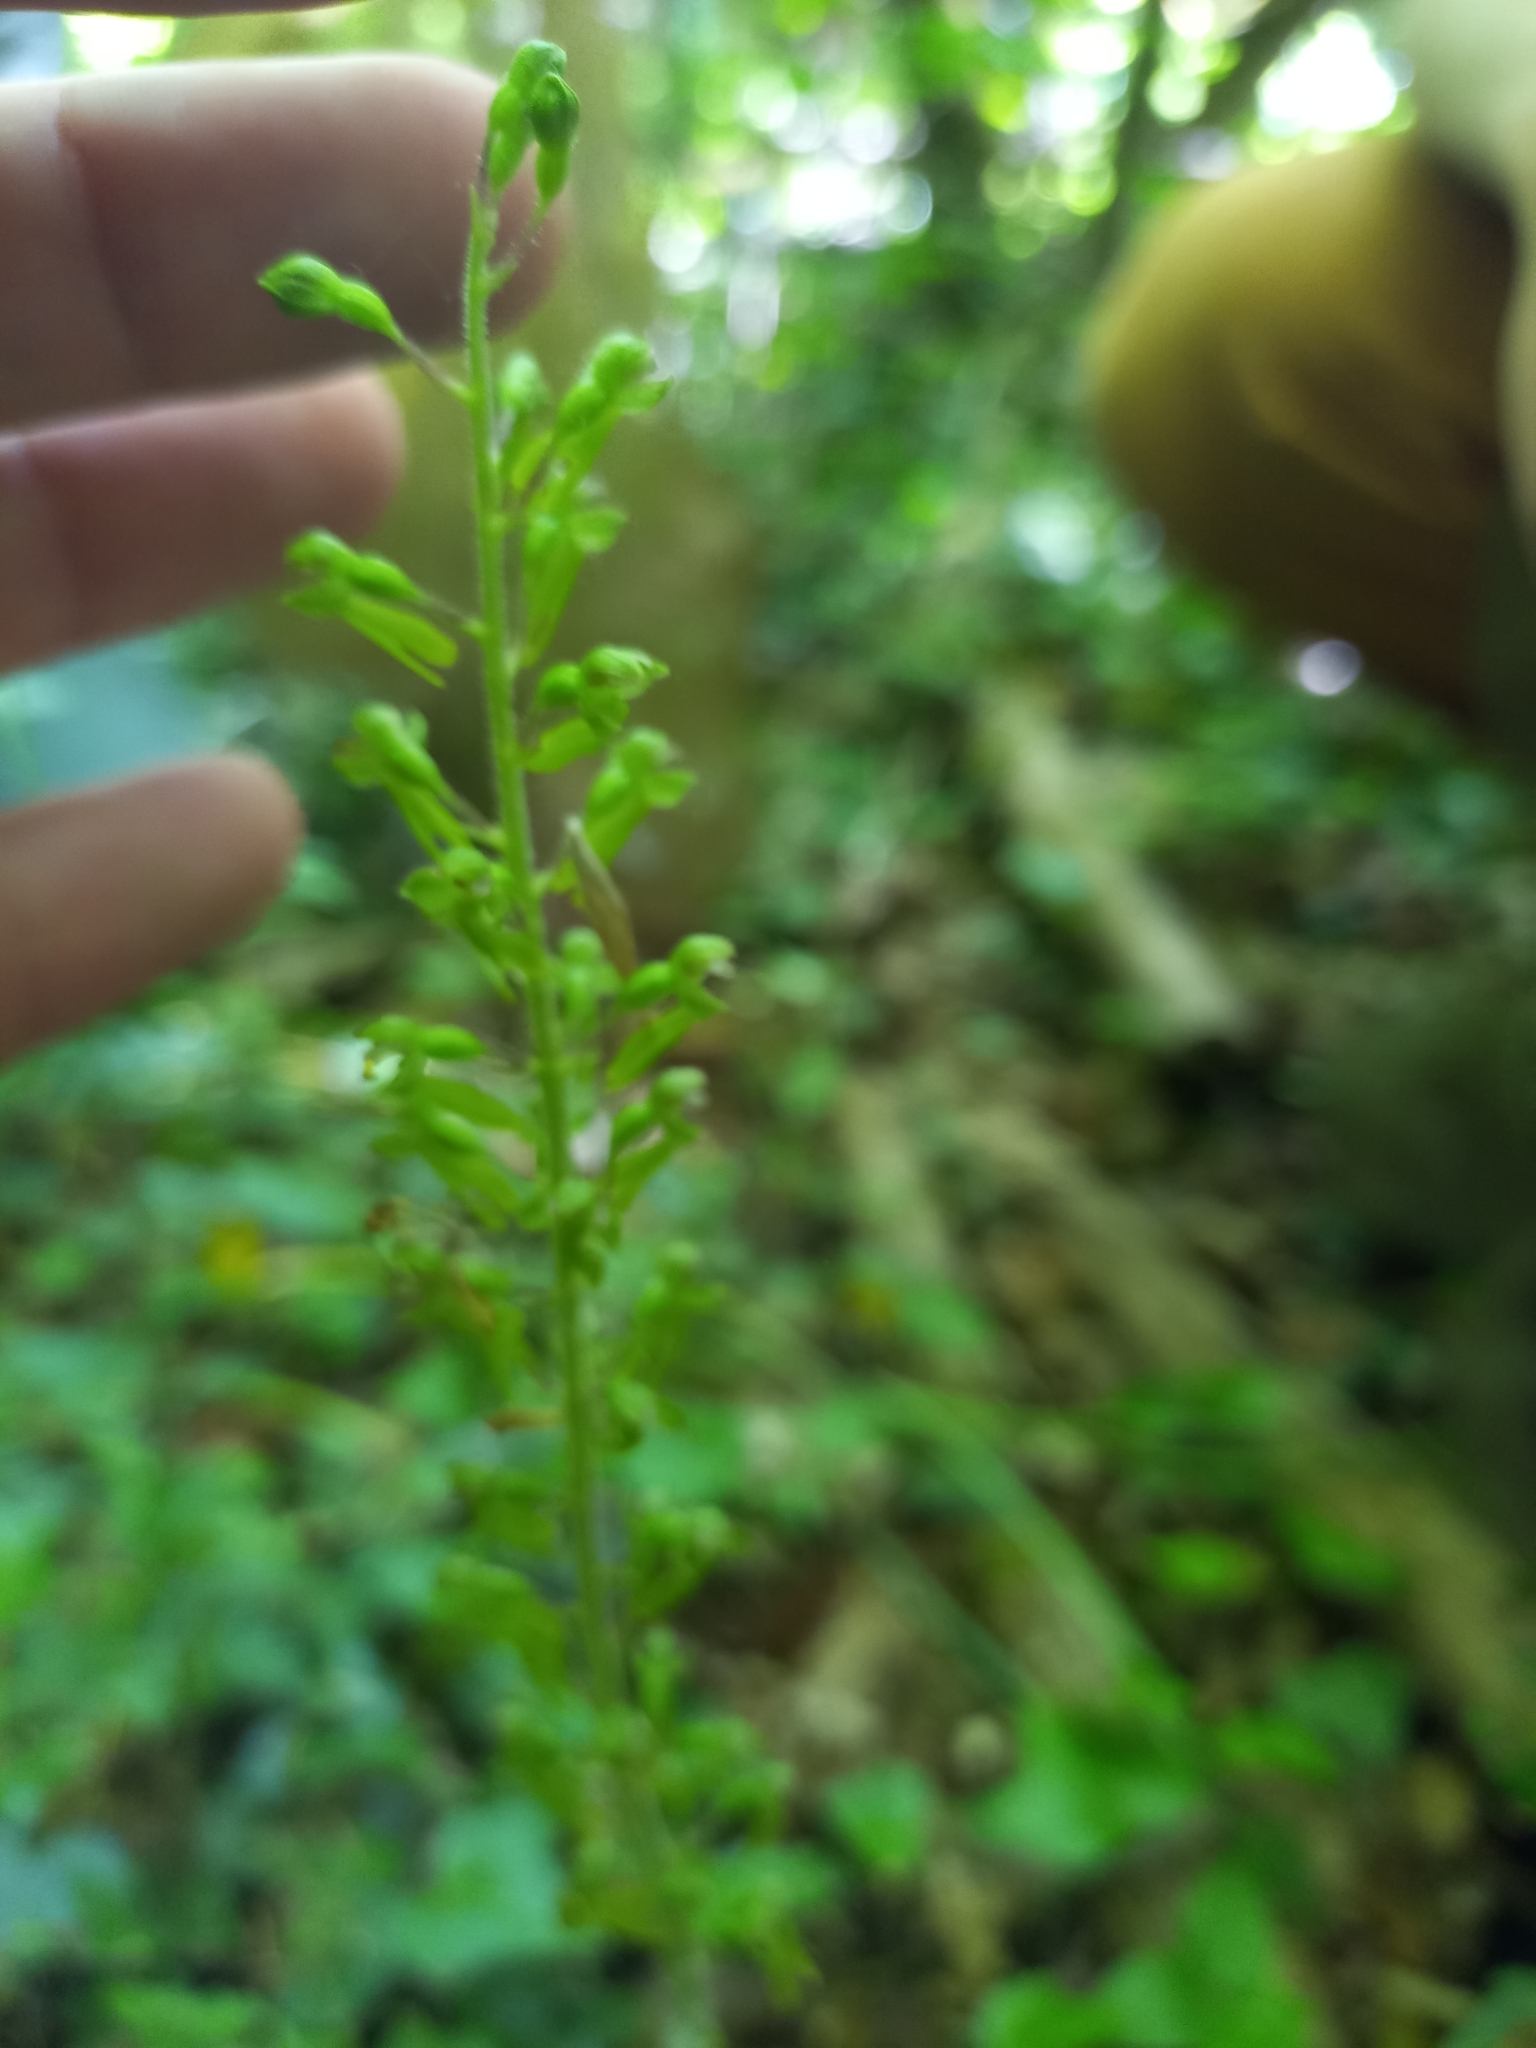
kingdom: Plantae
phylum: Tracheophyta
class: Liliopsida
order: Asparagales
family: Orchidaceae
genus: Neottia
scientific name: Neottia ovata
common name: Common twayblade
